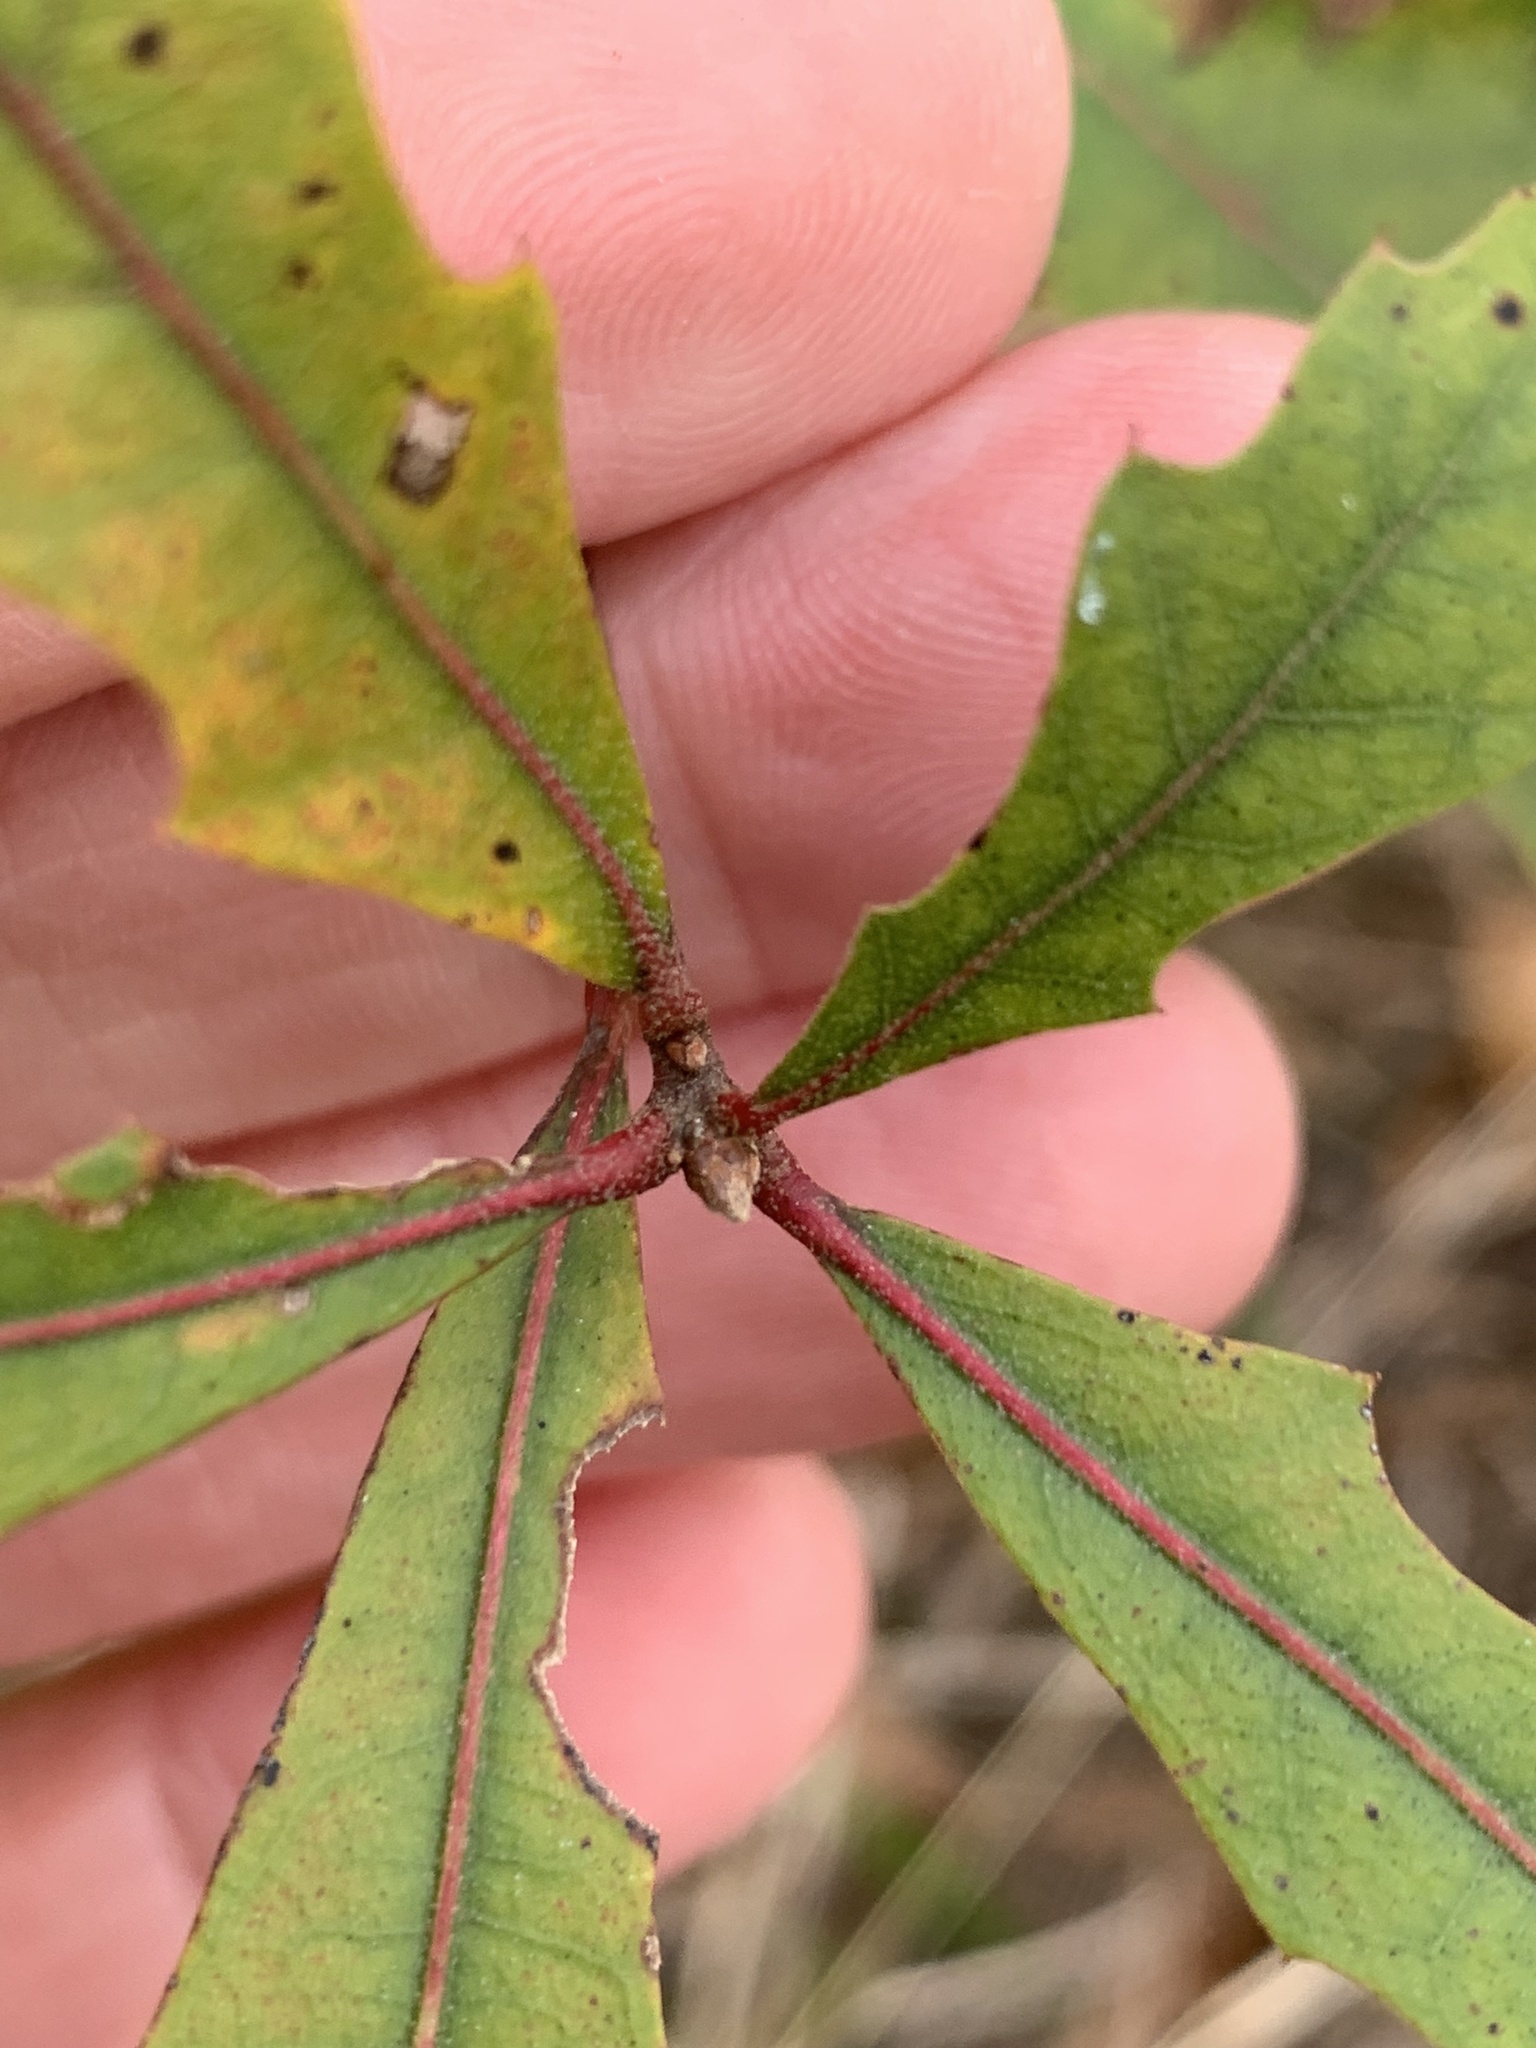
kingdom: Plantae
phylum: Tracheophyta
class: Magnoliopsida
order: Fagales
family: Fagaceae
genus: Quercus
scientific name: Quercus nigra
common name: Water oak
